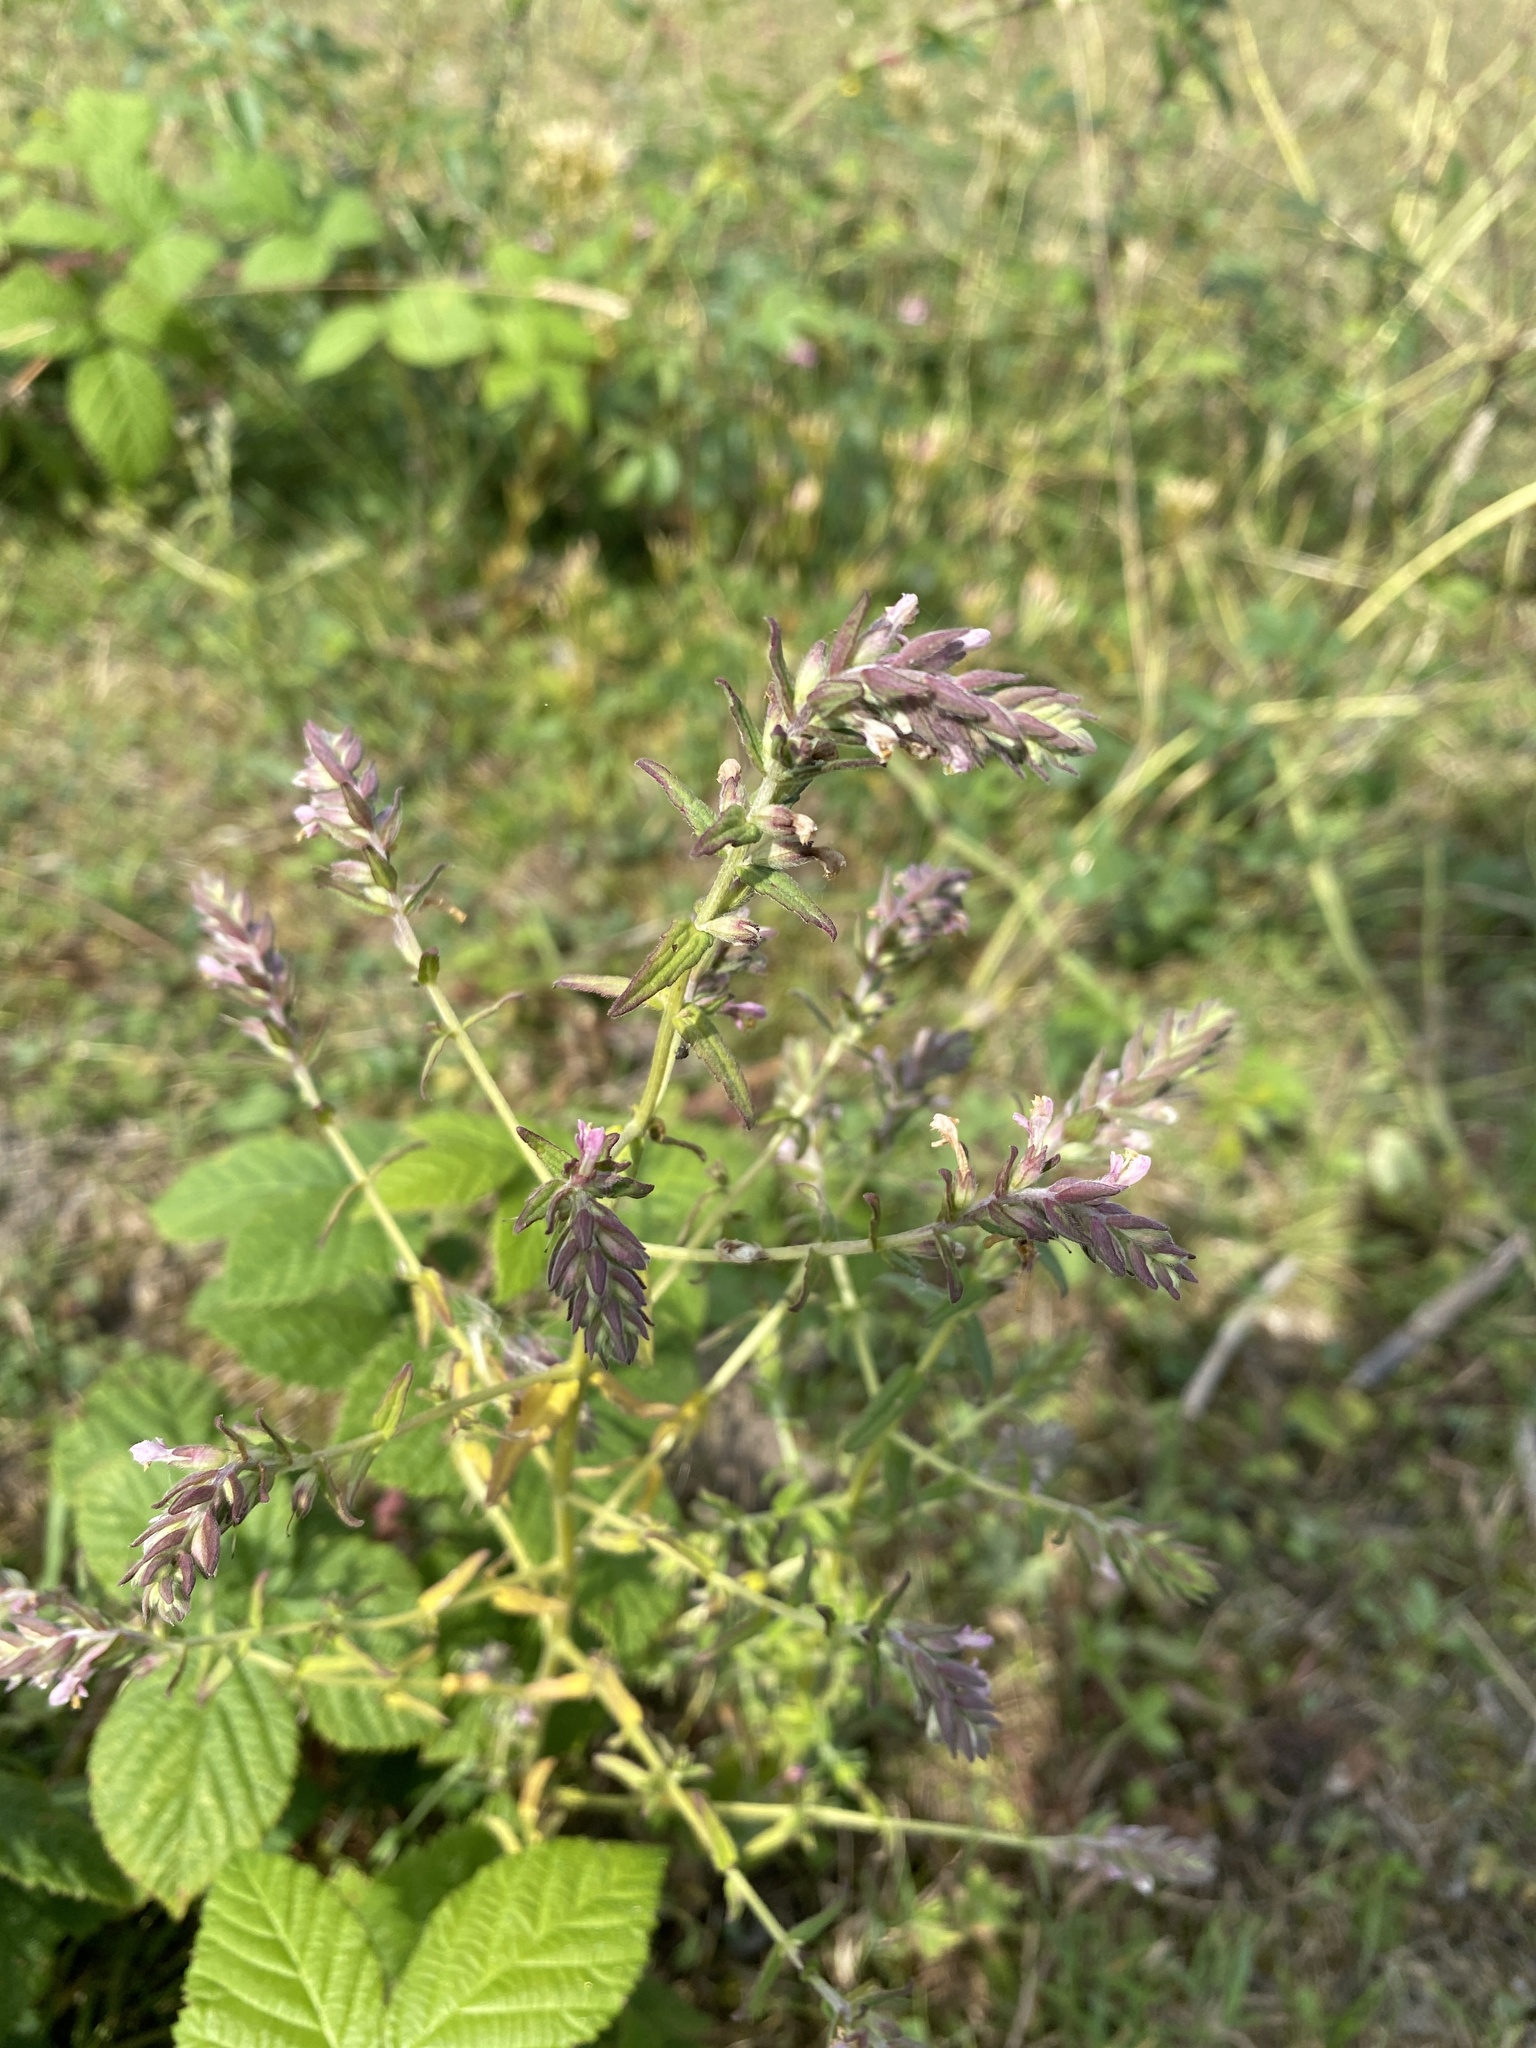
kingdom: Plantae
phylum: Tracheophyta
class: Magnoliopsida
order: Lamiales
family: Orobanchaceae
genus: Odontites
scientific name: Odontites vernus
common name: Red bartsia
